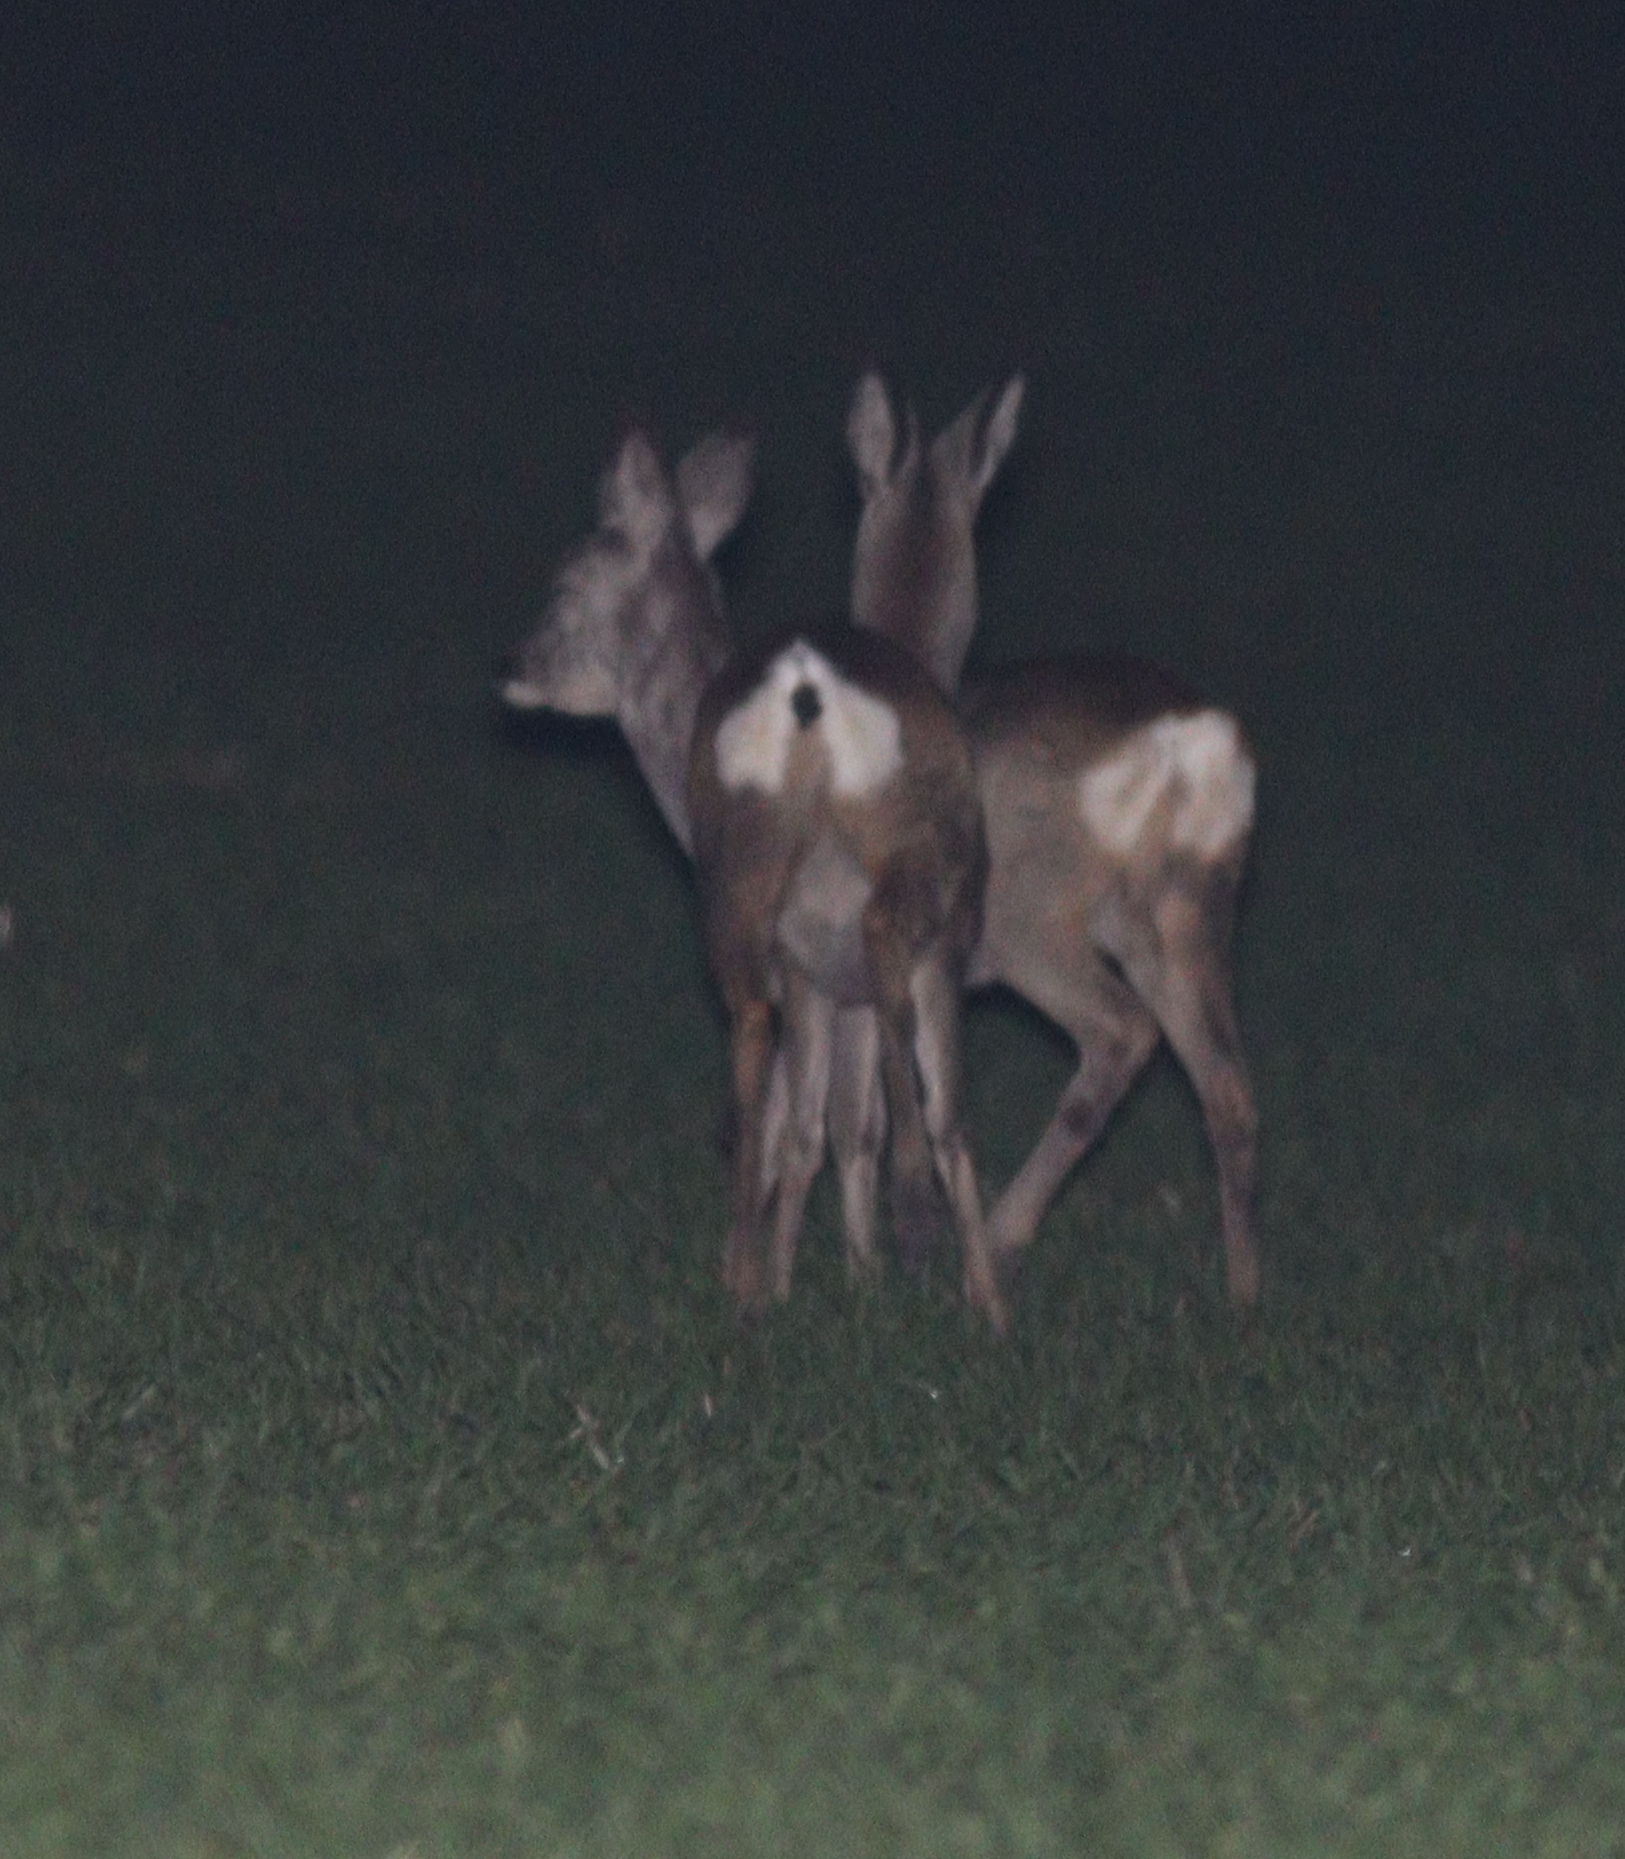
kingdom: Animalia
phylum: Chordata
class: Mammalia
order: Artiodactyla
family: Cervidae
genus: Capreolus
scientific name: Capreolus capreolus
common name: Western roe deer
